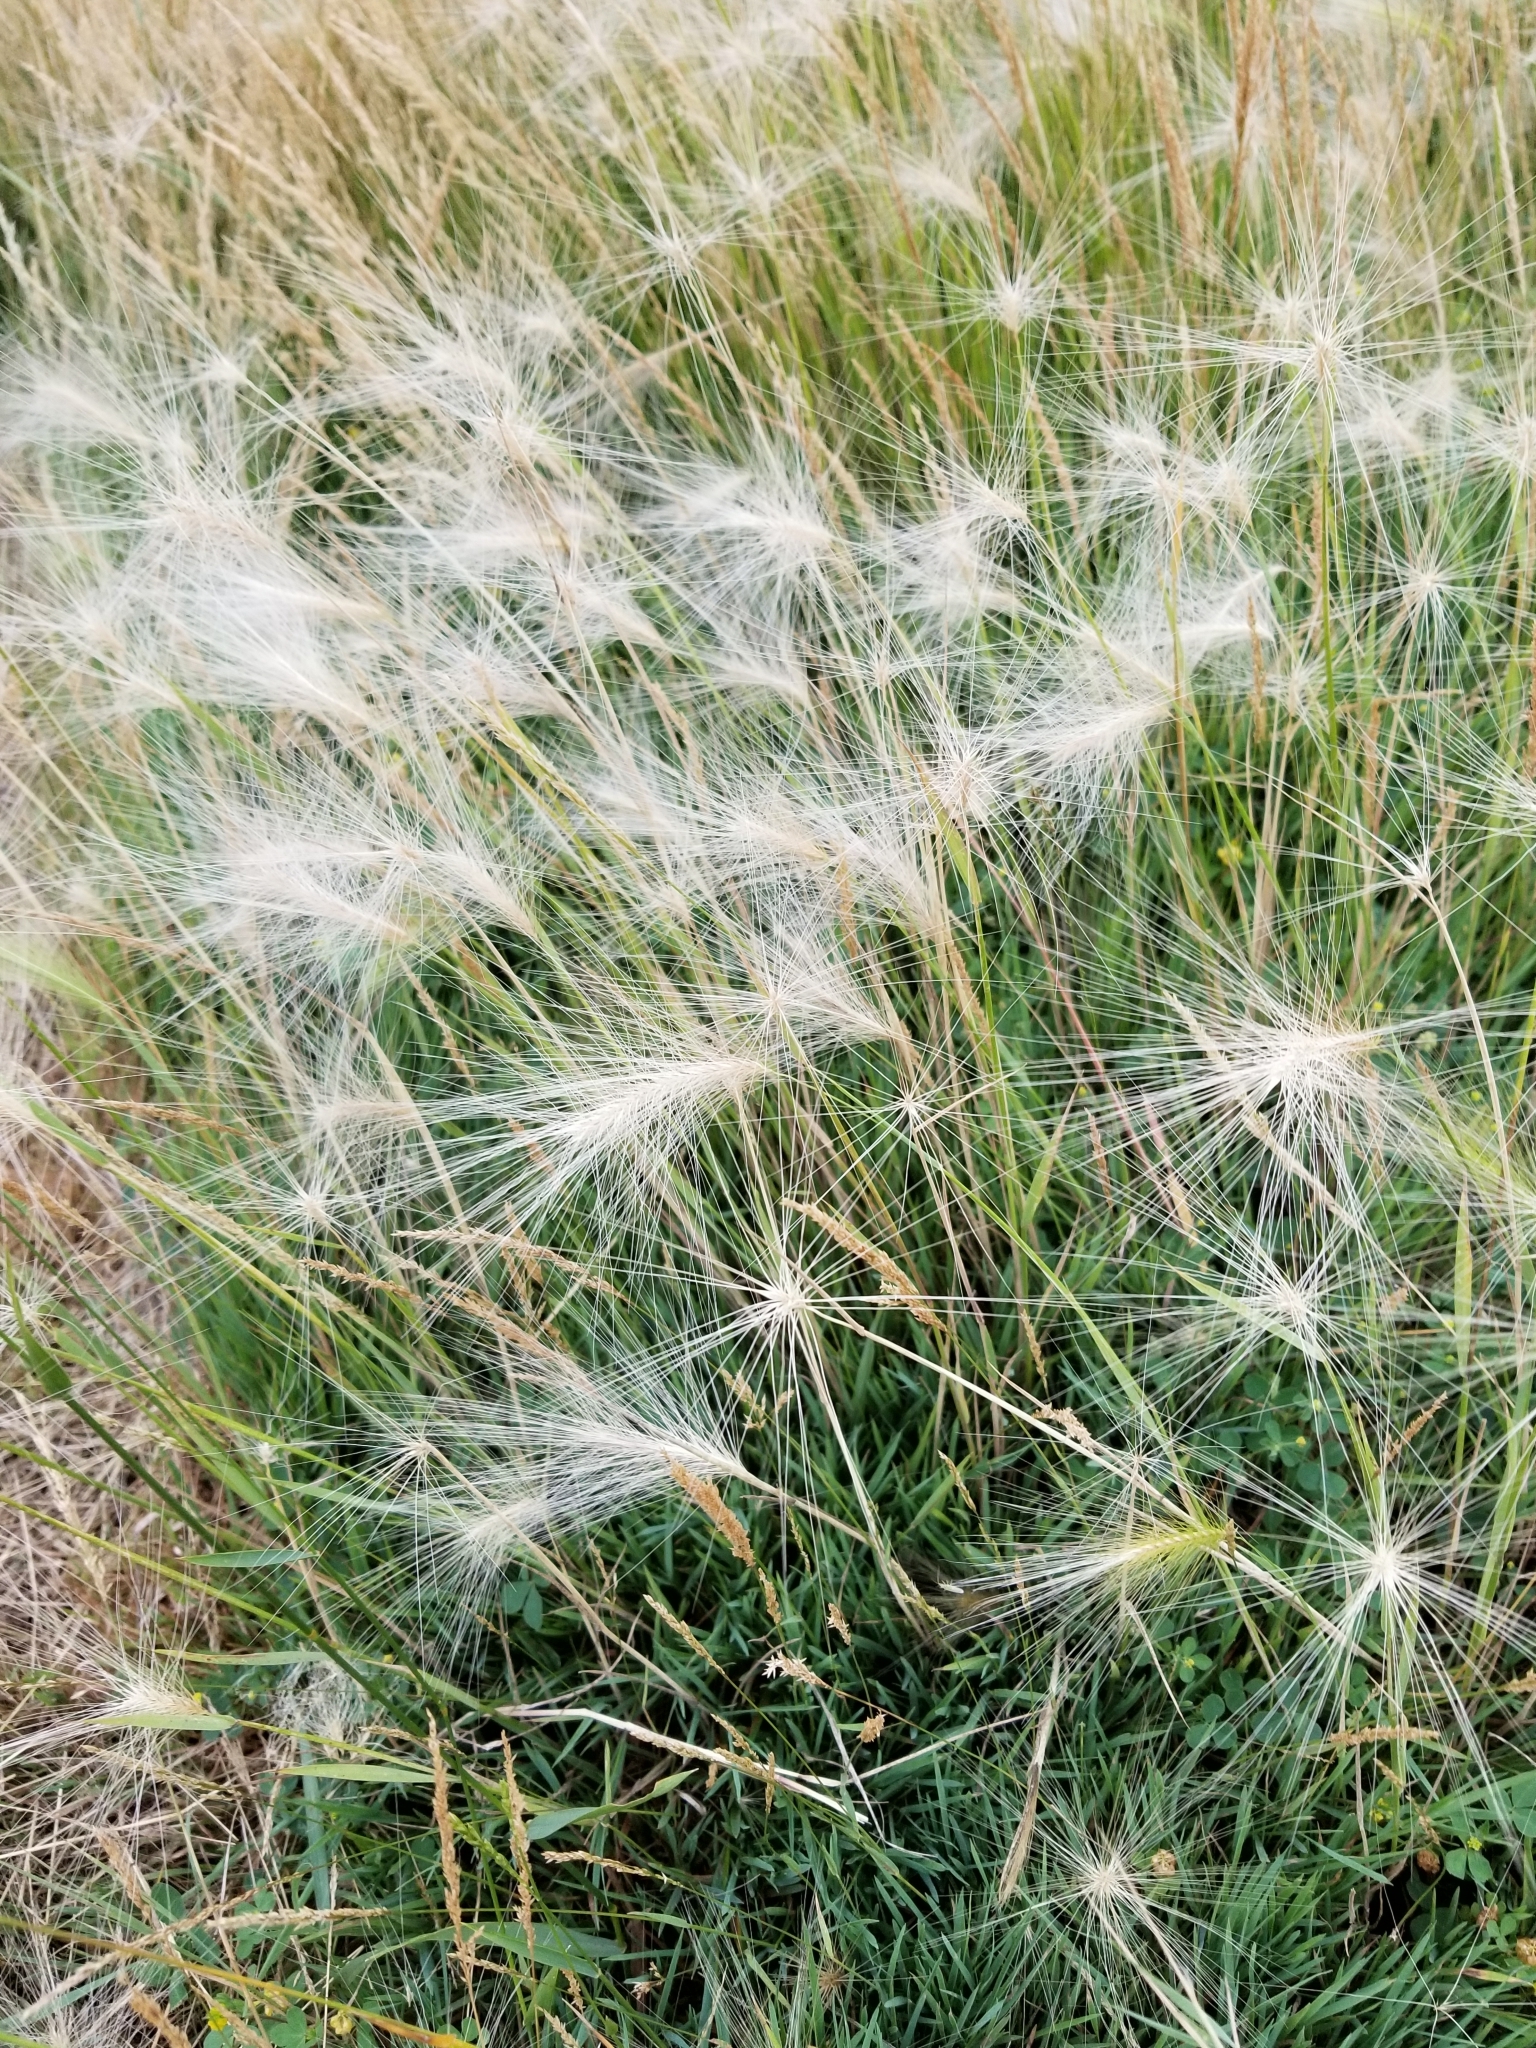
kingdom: Plantae
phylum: Tracheophyta
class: Liliopsida
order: Poales
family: Poaceae
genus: Hordeum
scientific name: Hordeum jubatum
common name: Foxtail barley
